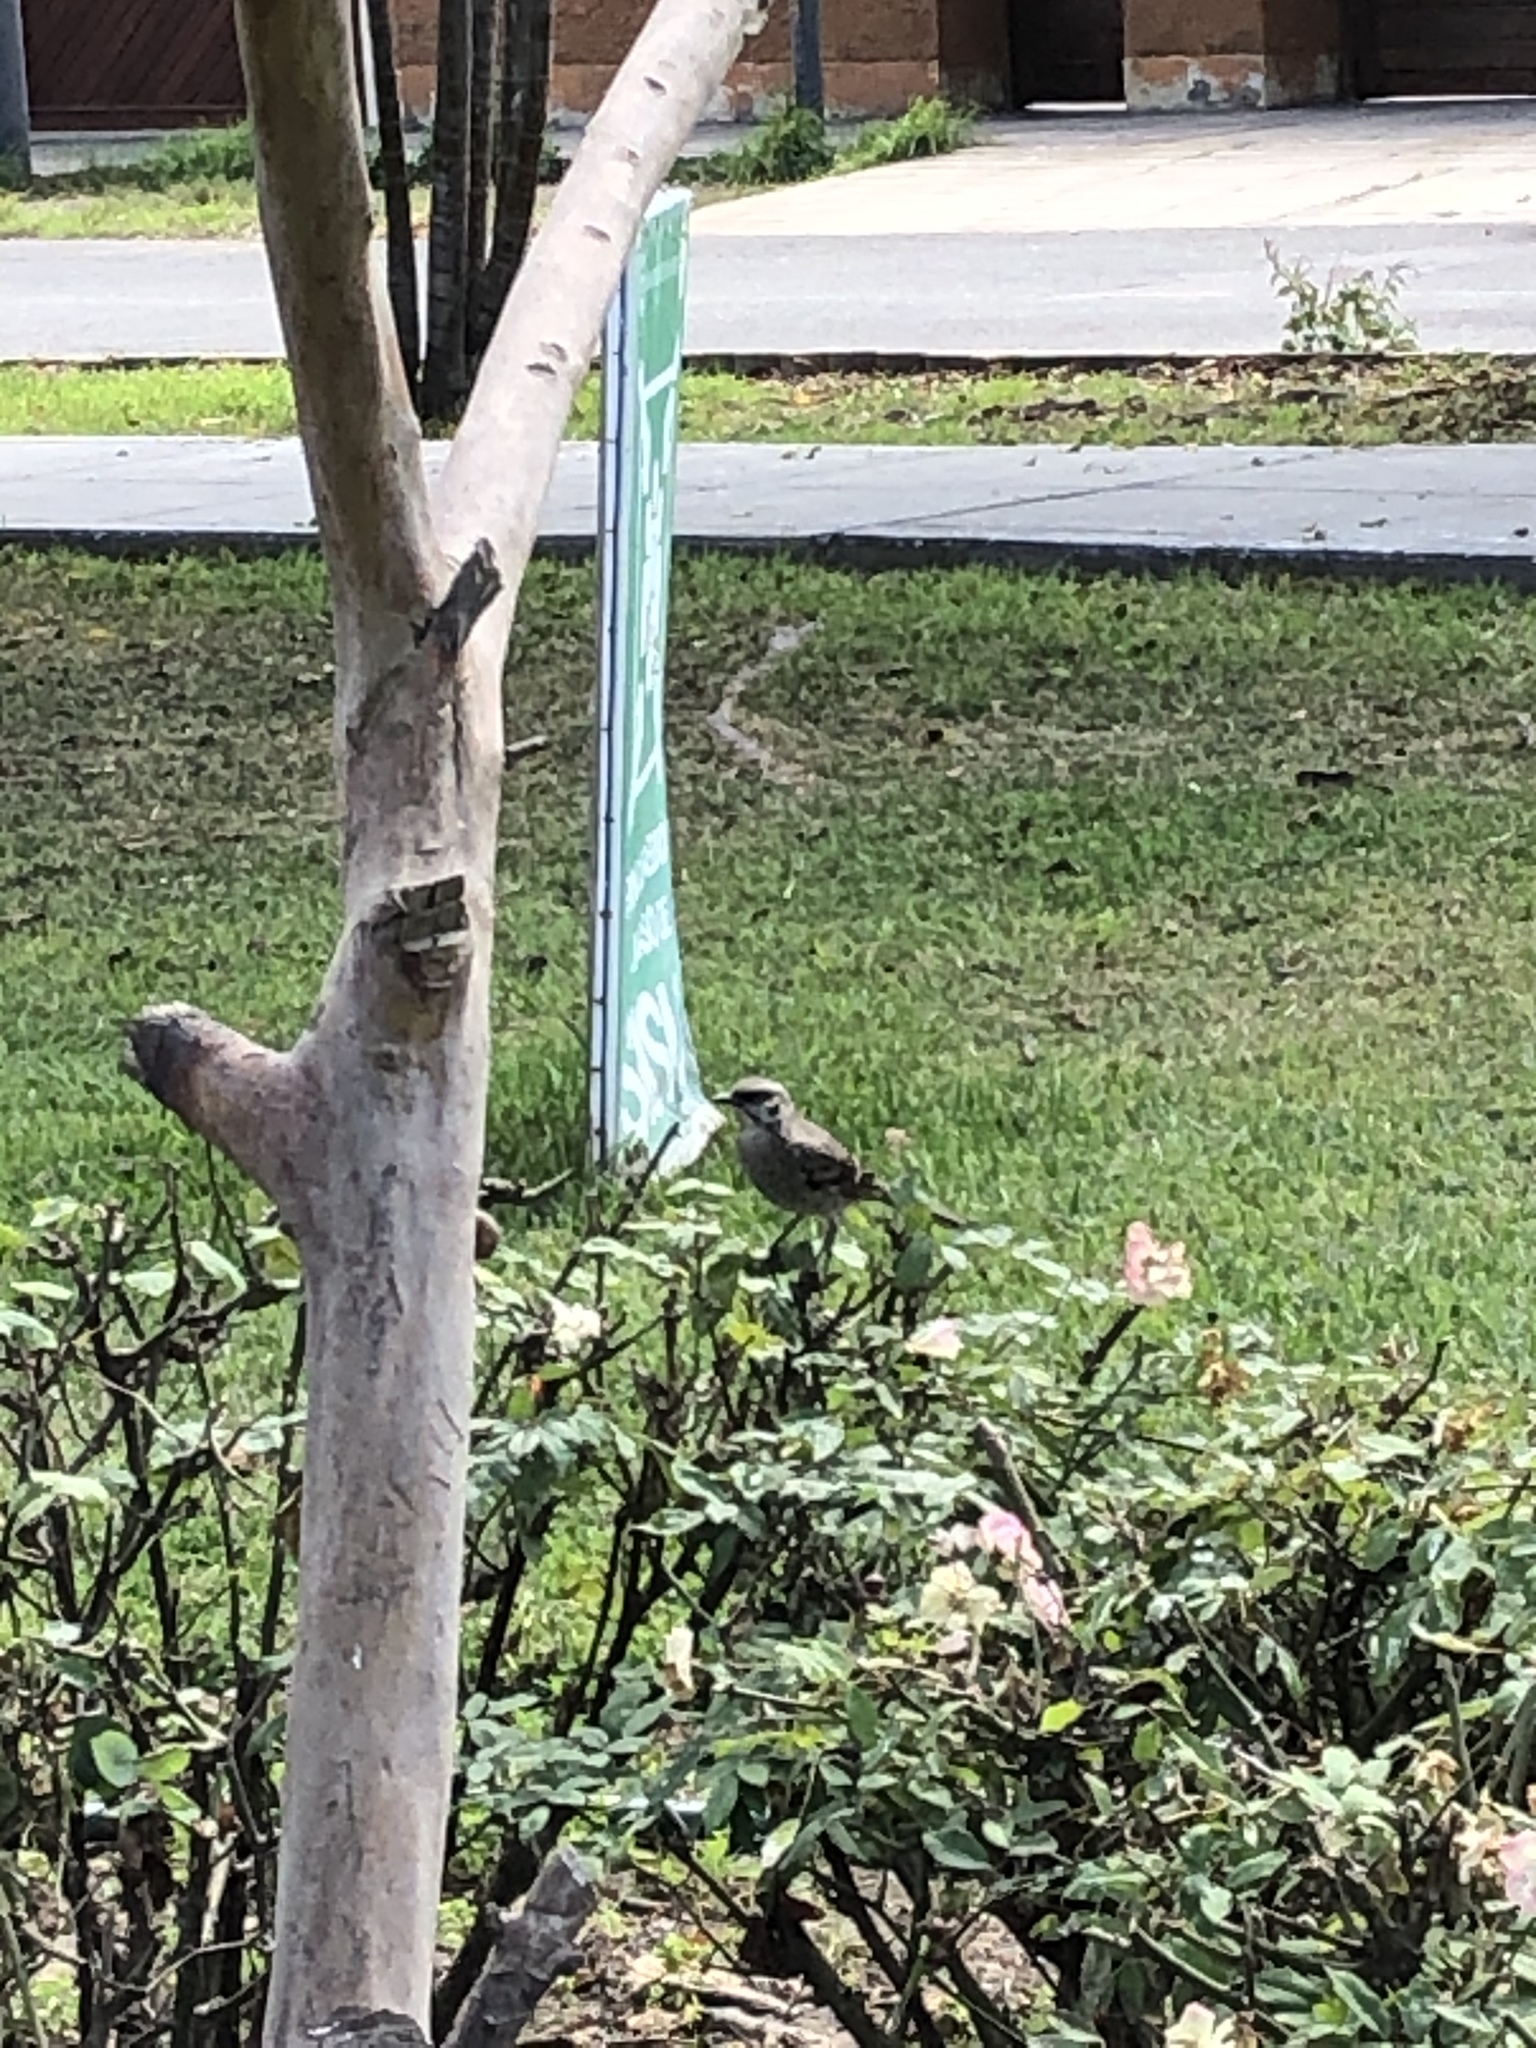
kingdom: Animalia
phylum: Chordata
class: Aves
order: Passeriformes
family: Mimidae
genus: Mimus
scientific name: Mimus longicaudatus
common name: Long-tailed mockingbird
